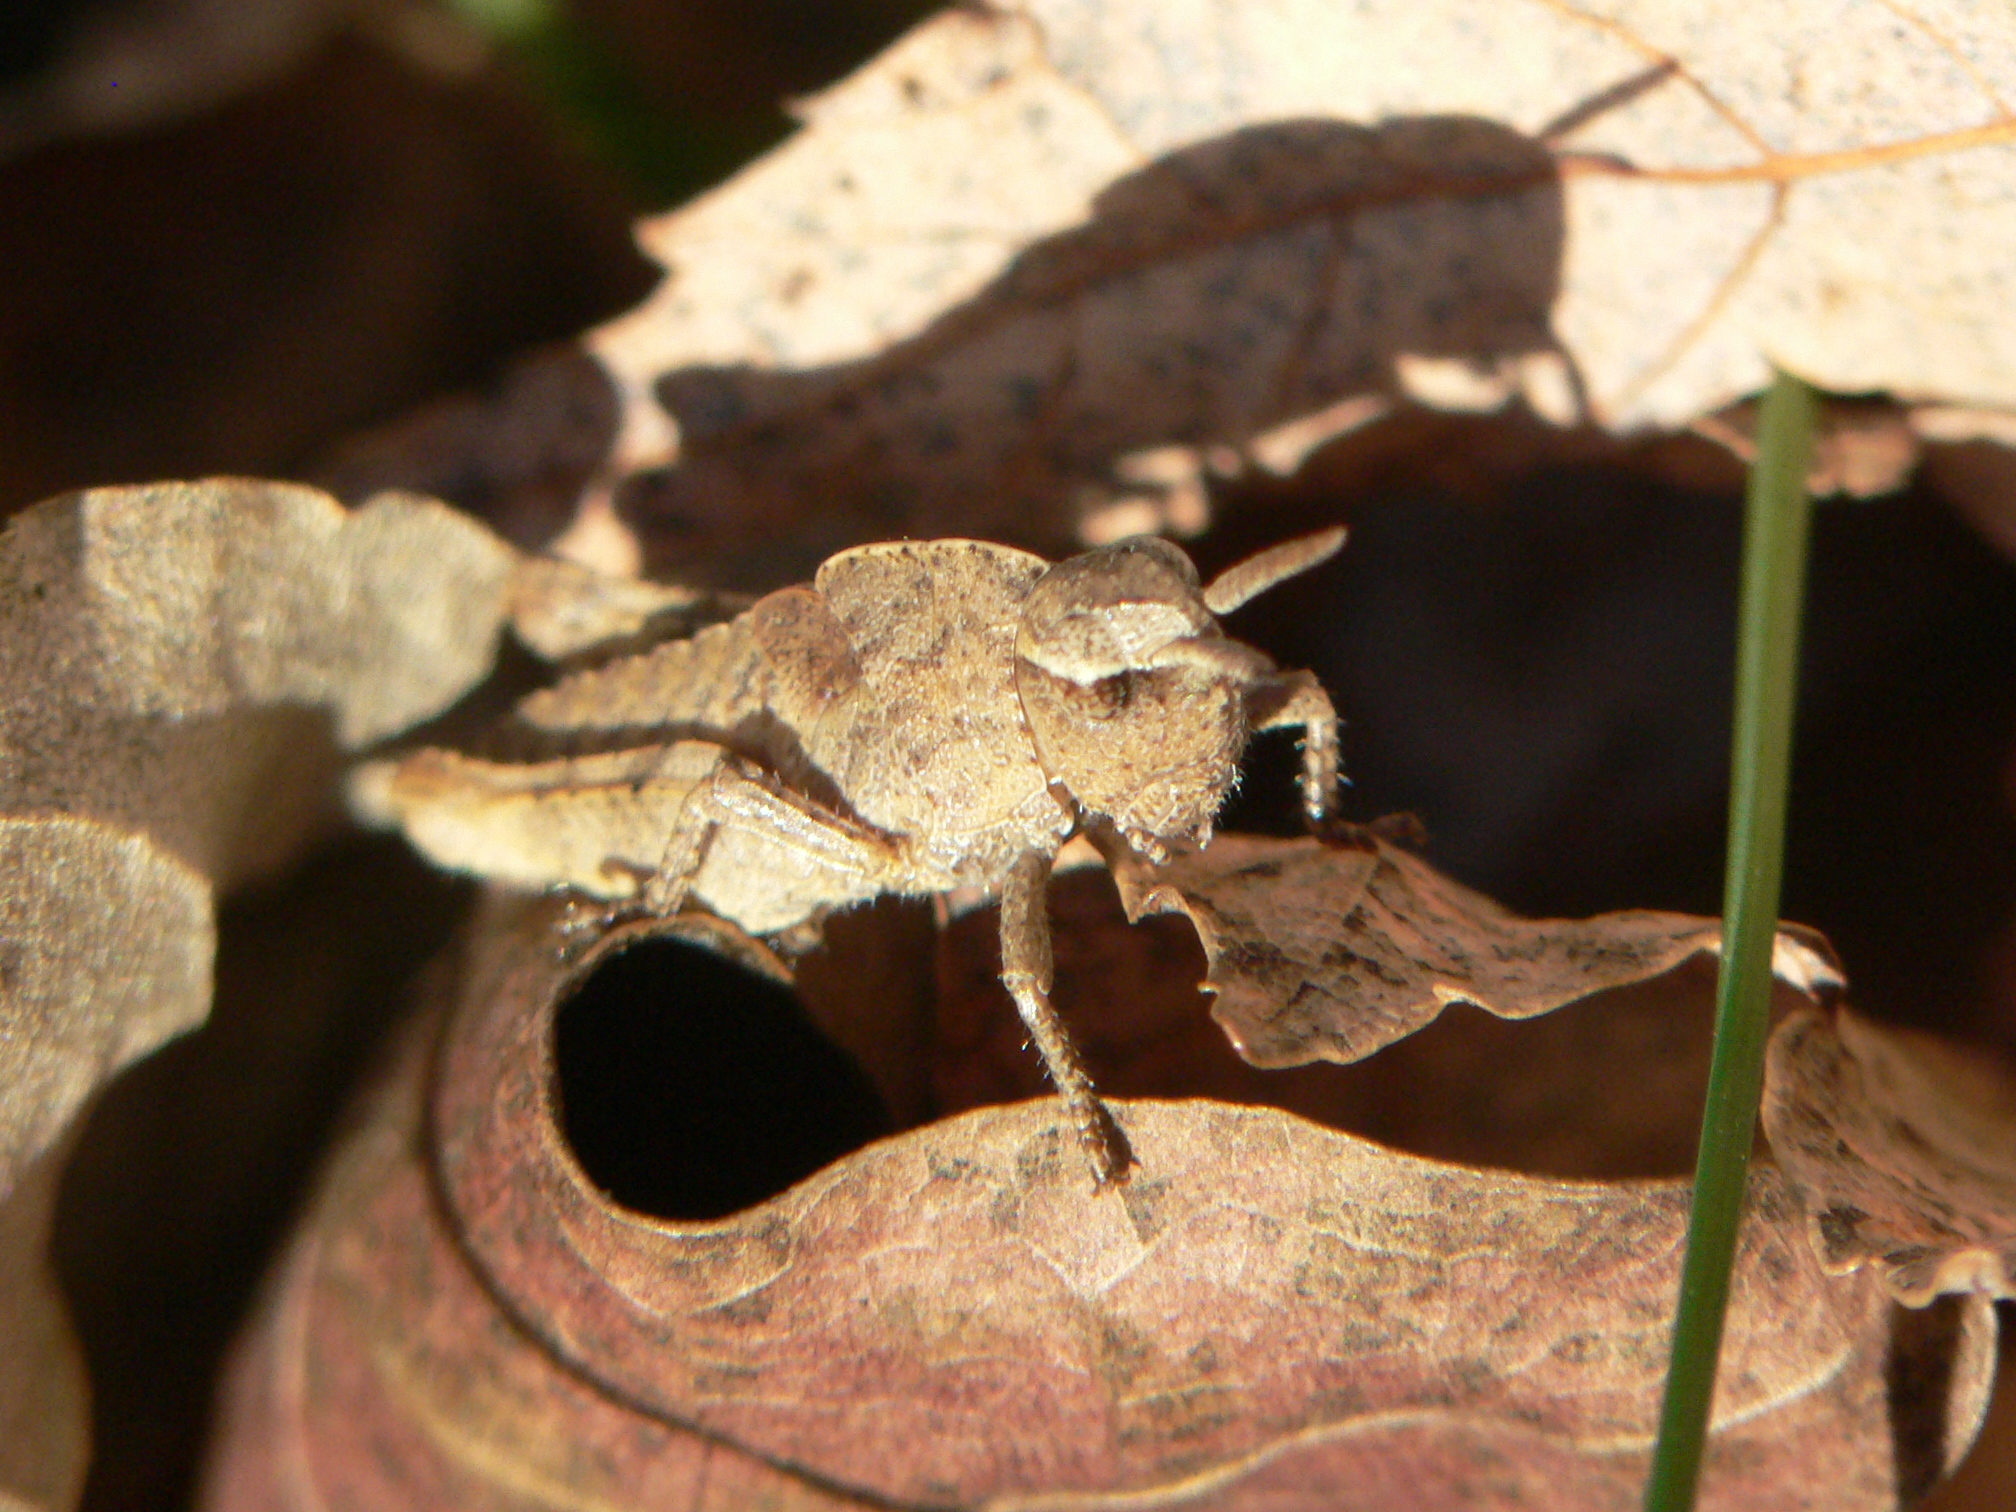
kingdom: Animalia
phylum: Arthropoda
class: Insecta
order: Orthoptera
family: Acrididae
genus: Chortophaga
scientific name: Chortophaga viridifasciata
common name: Green-striped grasshopper
